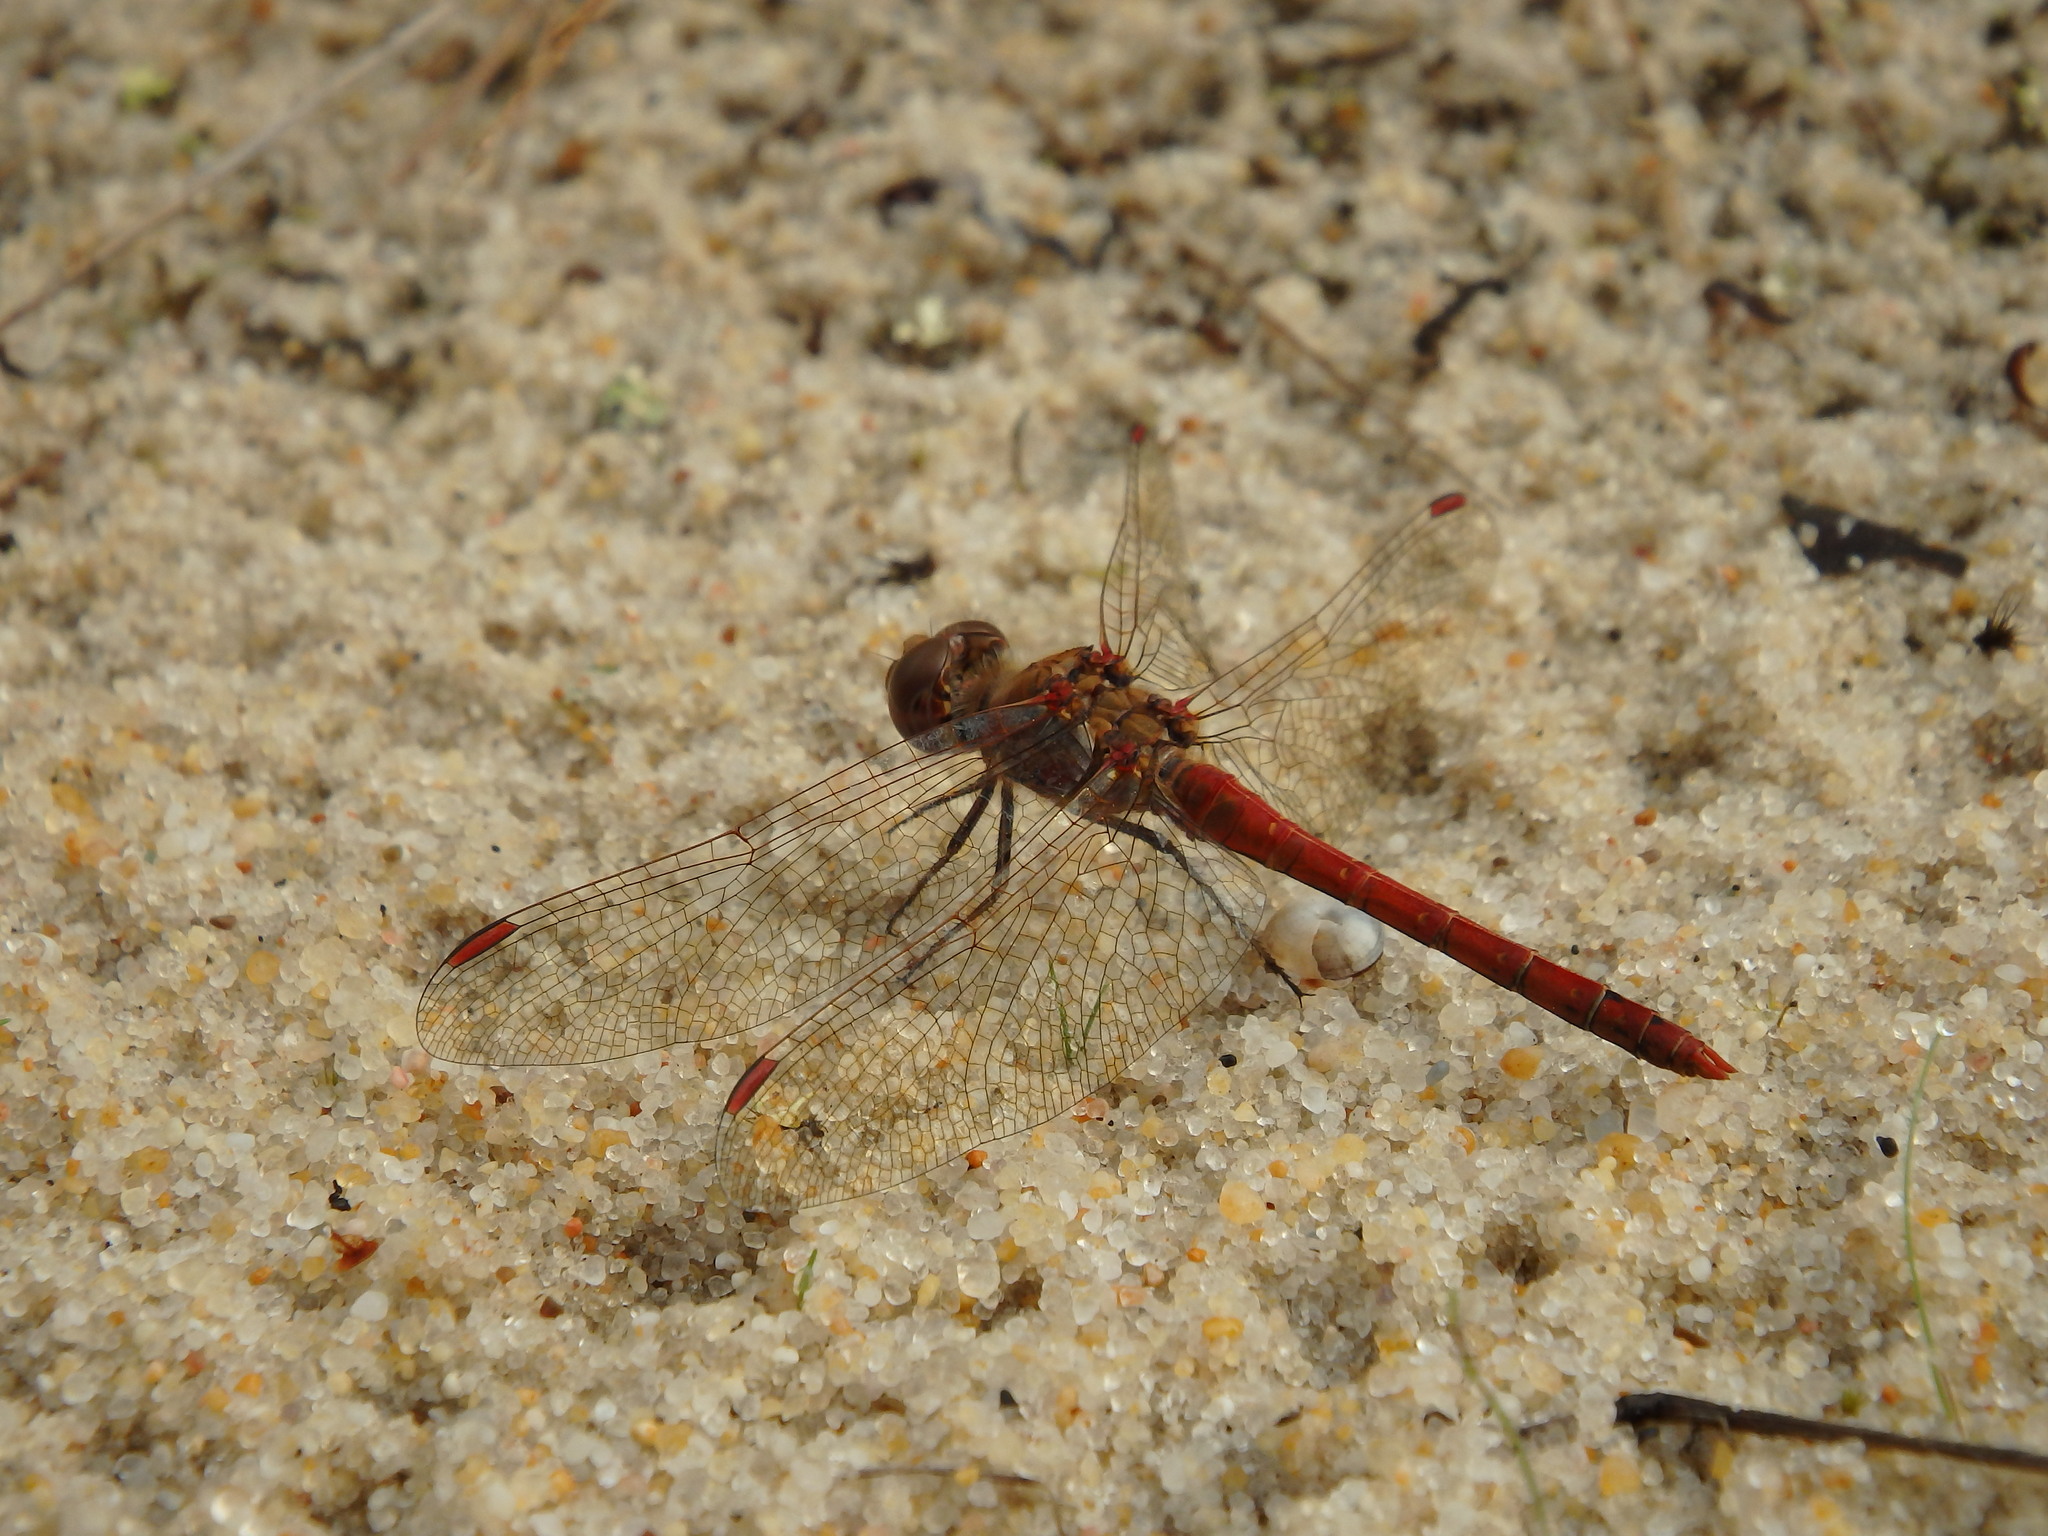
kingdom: Animalia
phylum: Arthropoda
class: Insecta
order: Odonata
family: Libellulidae
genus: Sympetrum
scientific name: Sympetrum striolatum
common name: Common darter
